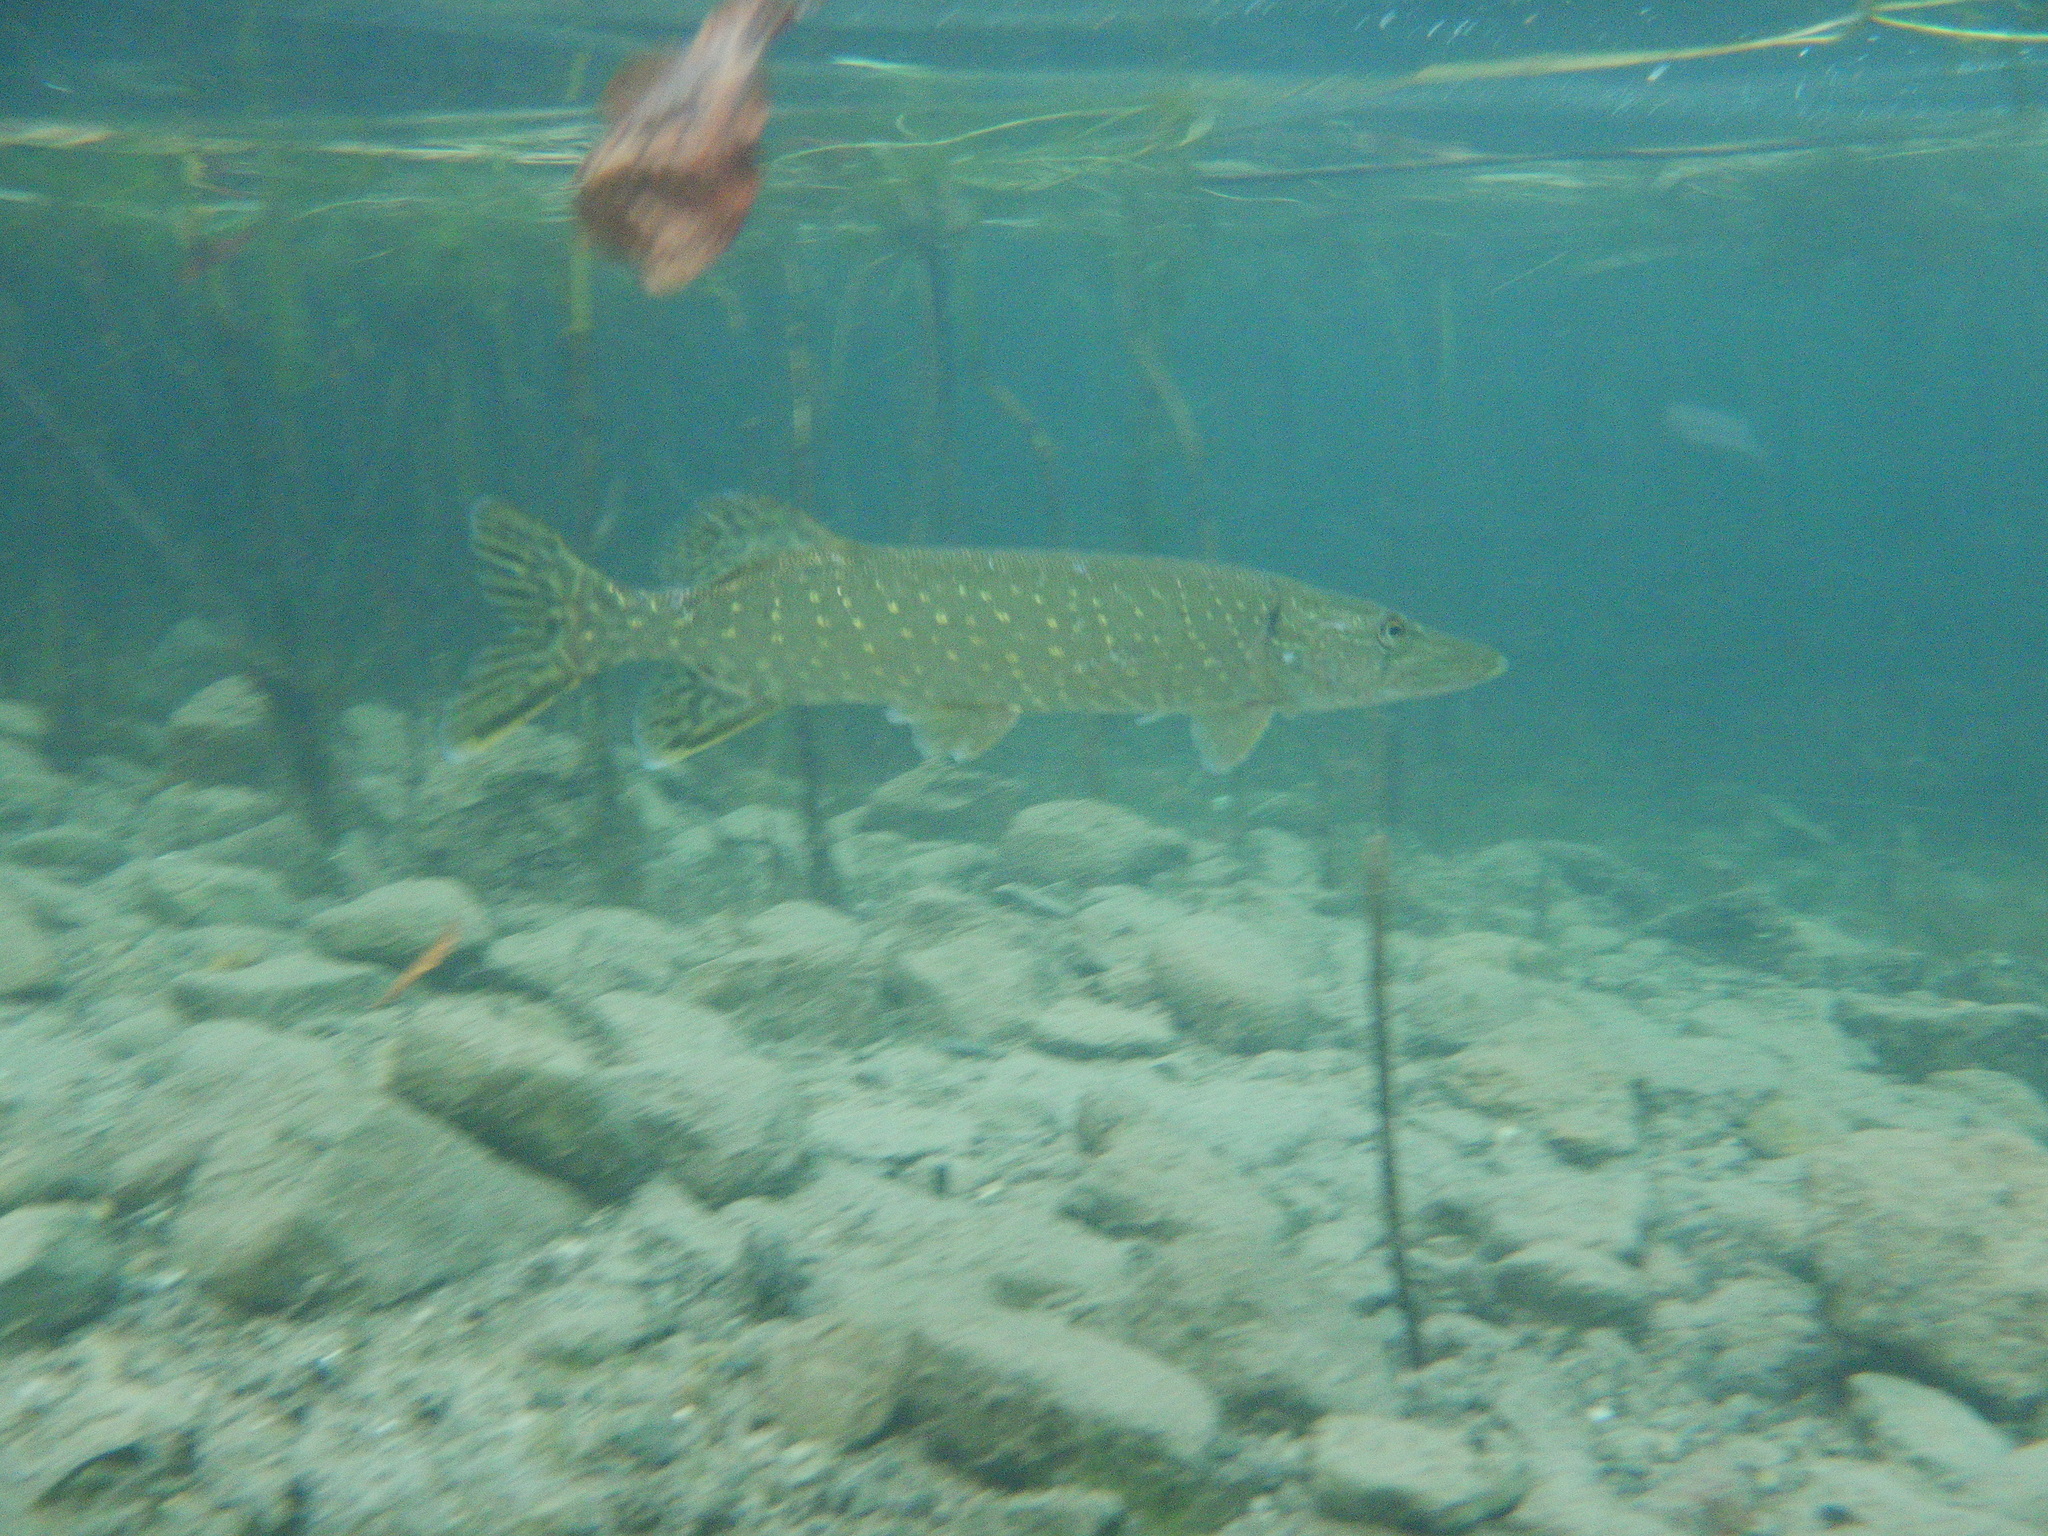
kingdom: Animalia
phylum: Chordata
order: Esociformes
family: Esocidae
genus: Esox
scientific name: Esox lucius
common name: Northern pike
